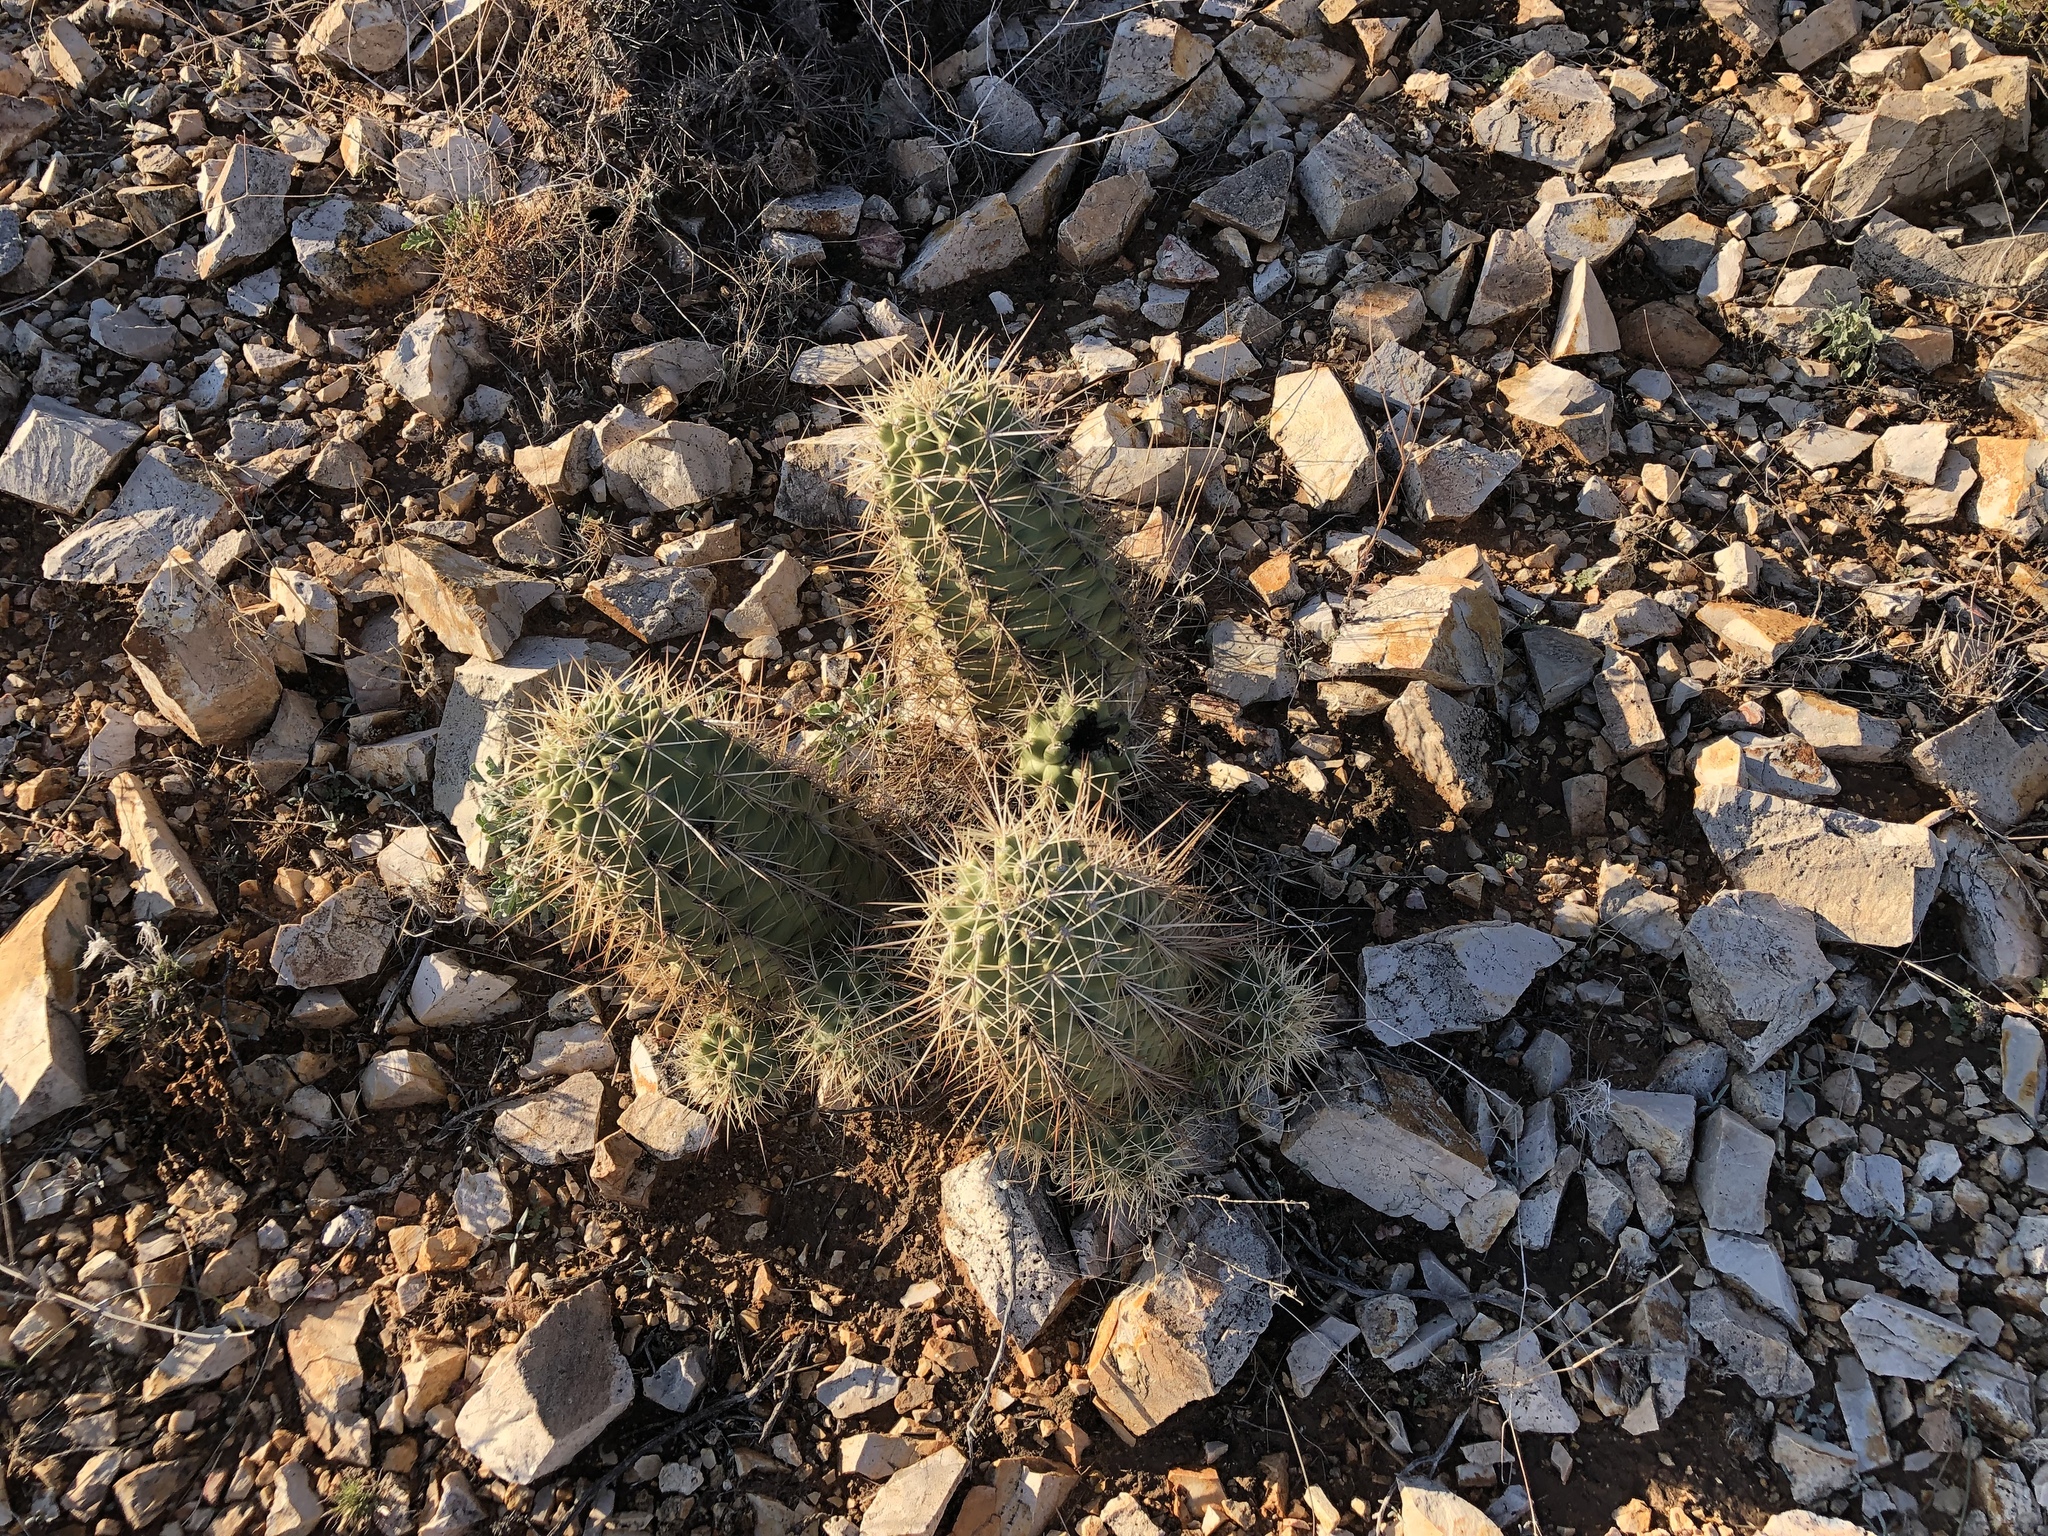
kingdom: Plantae
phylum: Tracheophyta
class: Magnoliopsida
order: Caryophyllales
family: Cactaceae
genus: Echinocereus
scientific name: Echinocereus coccineus
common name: Scarlet hedgehog cactus
